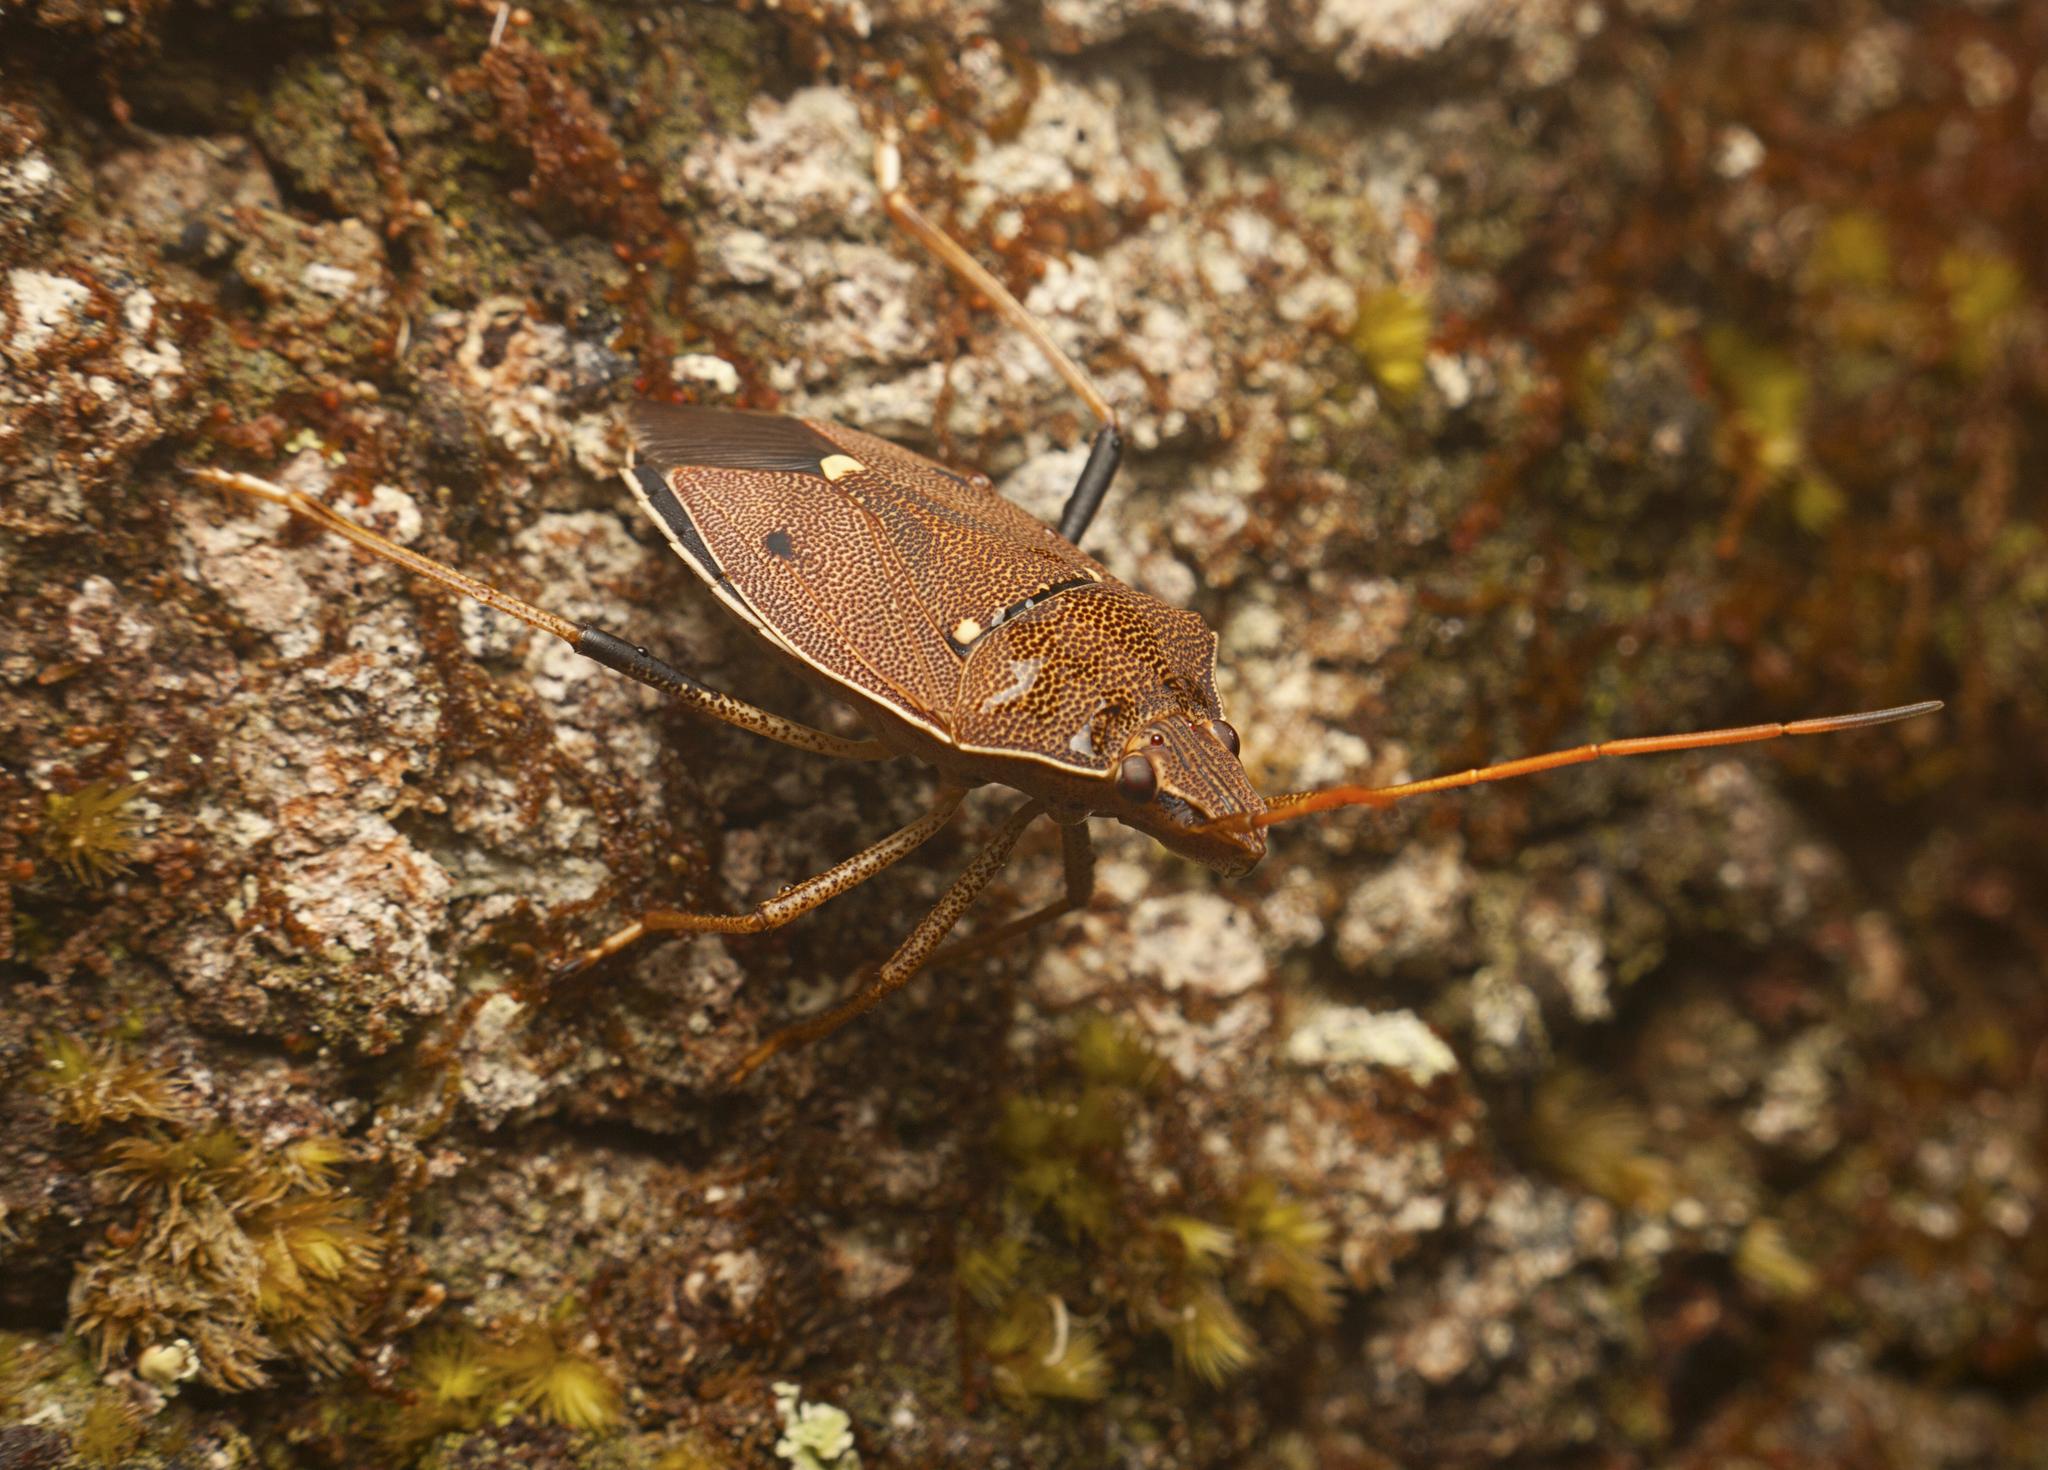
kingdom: Animalia
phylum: Arthropoda
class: Insecta
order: Hemiptera
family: Pentatomidae
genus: Poecilometis
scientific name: Poecilometis
